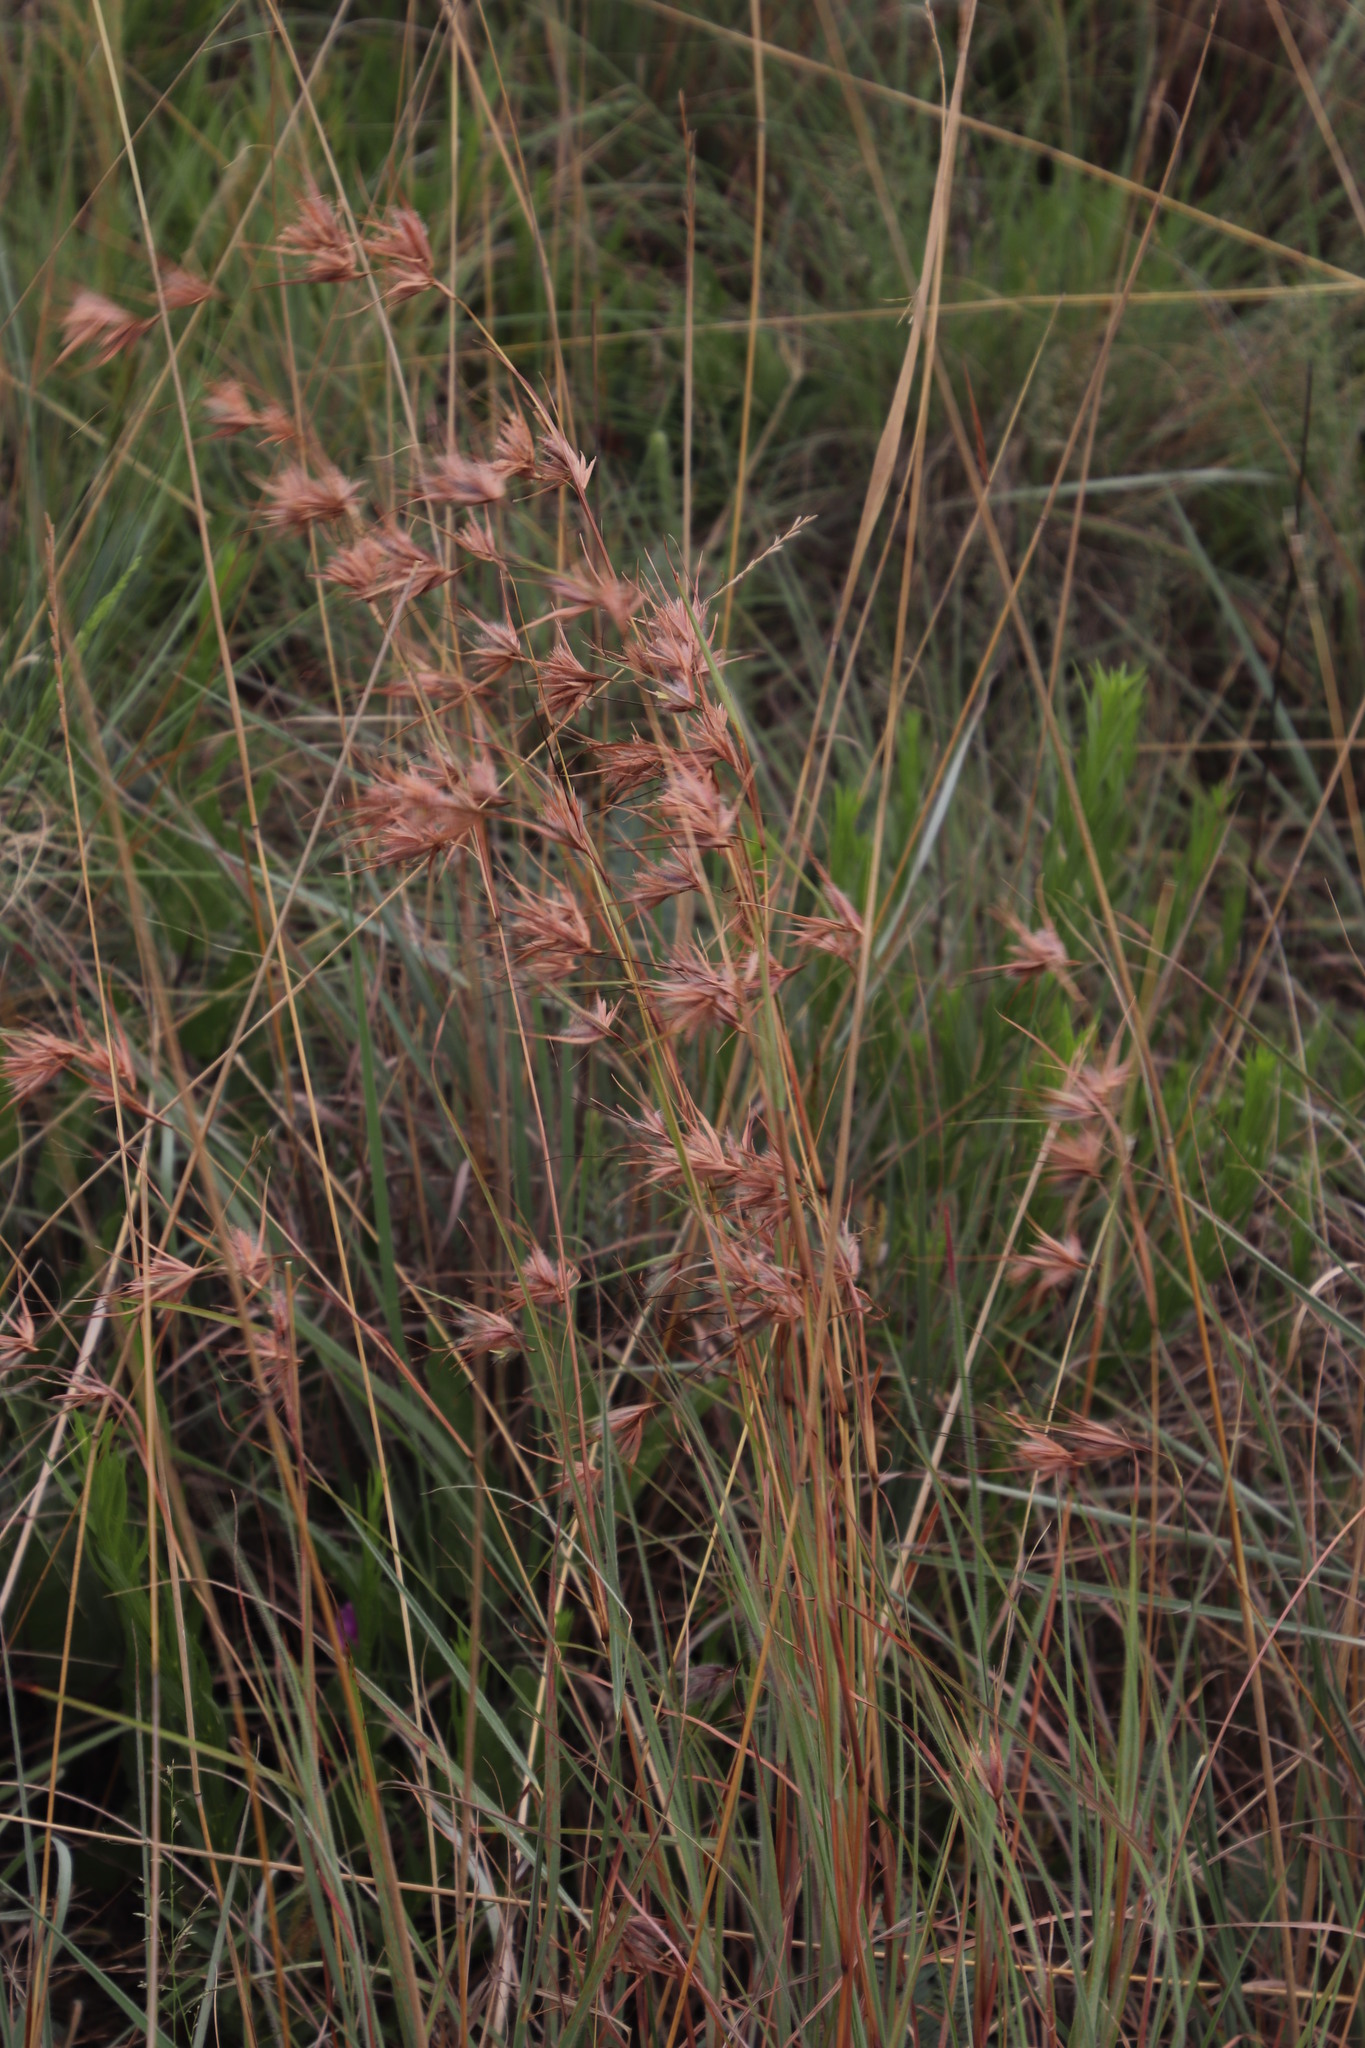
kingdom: Plantae
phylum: Tracheophyta
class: Liliopsida
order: Poales
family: Poaceae
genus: Themeda
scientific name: Themeda triandra
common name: Kangaroo grass
